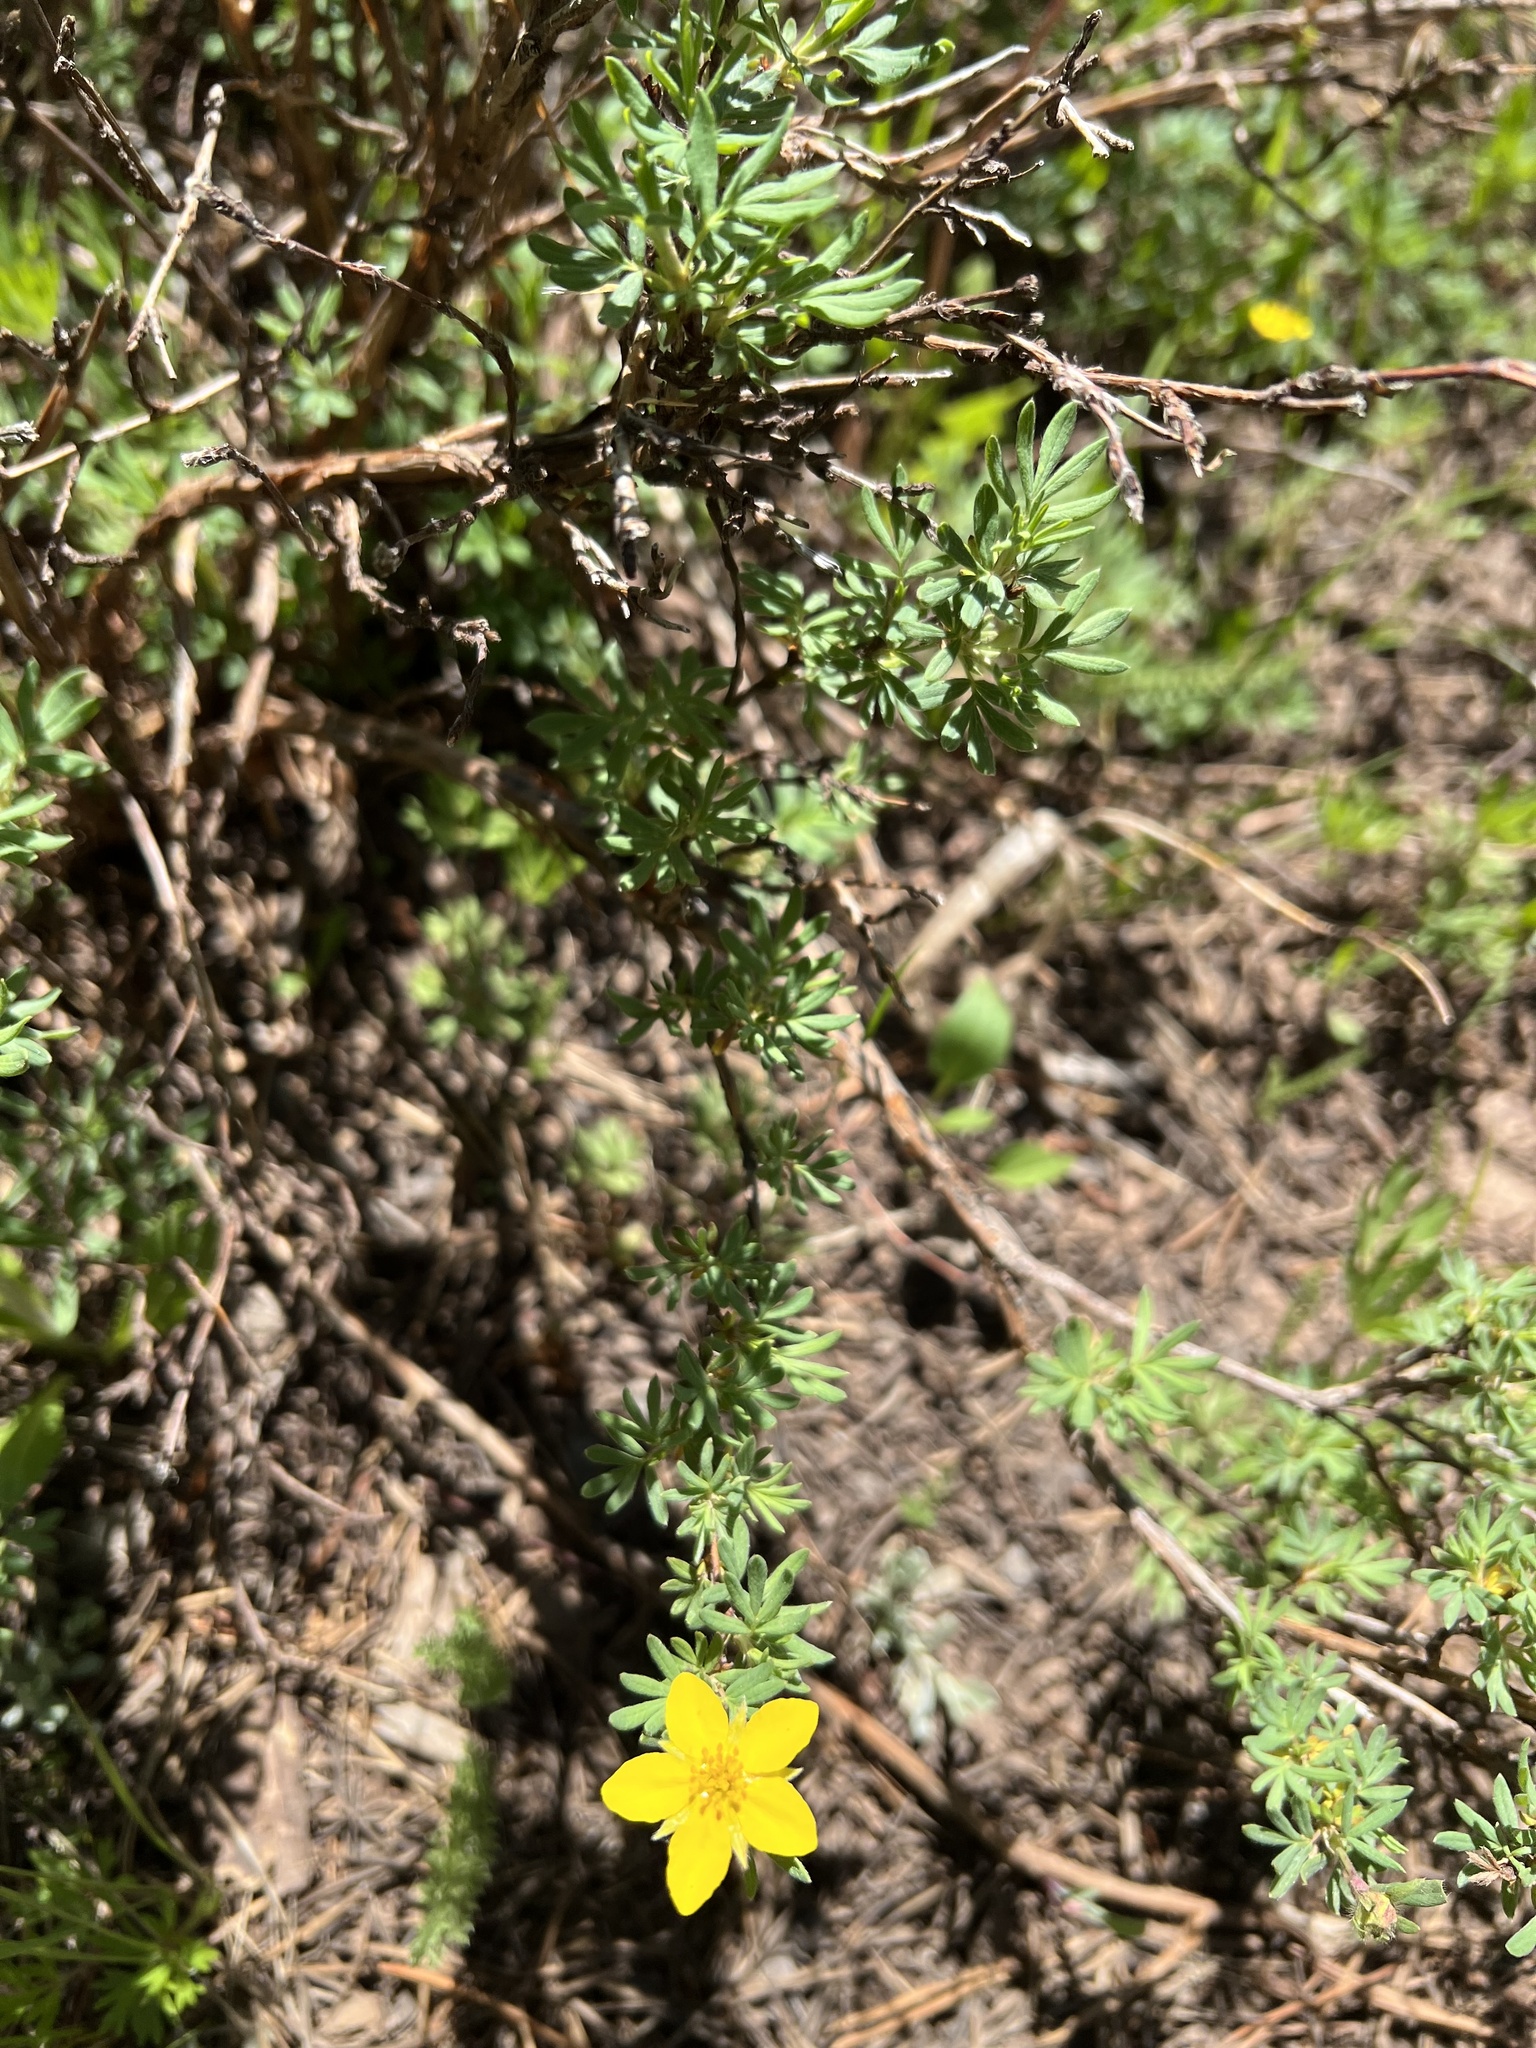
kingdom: Plantae
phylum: Tracheophyta
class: Magnoliopsida
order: Rosales
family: Rosaceae
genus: Dasiphora
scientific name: Dasiphora fruticosa
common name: Shrubby cinquefoil
